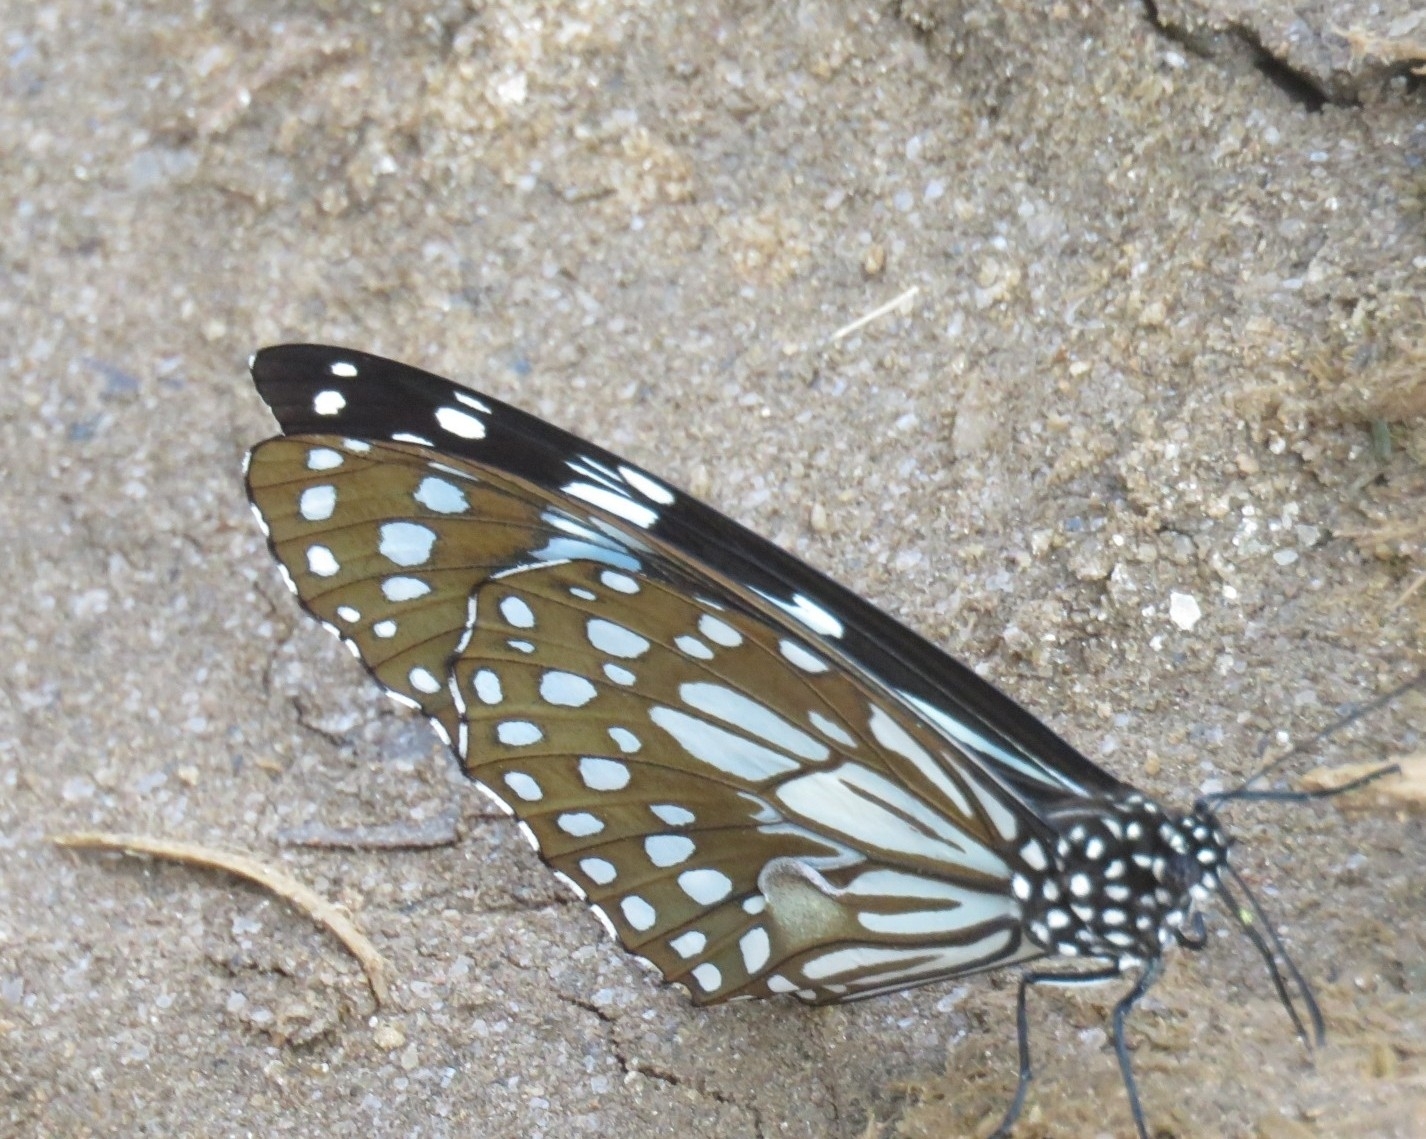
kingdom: Animalia
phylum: Arthropoda
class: Insecta
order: Lepidoptera
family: Nymphalidae
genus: Tirumala
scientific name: Tirumala limniace
